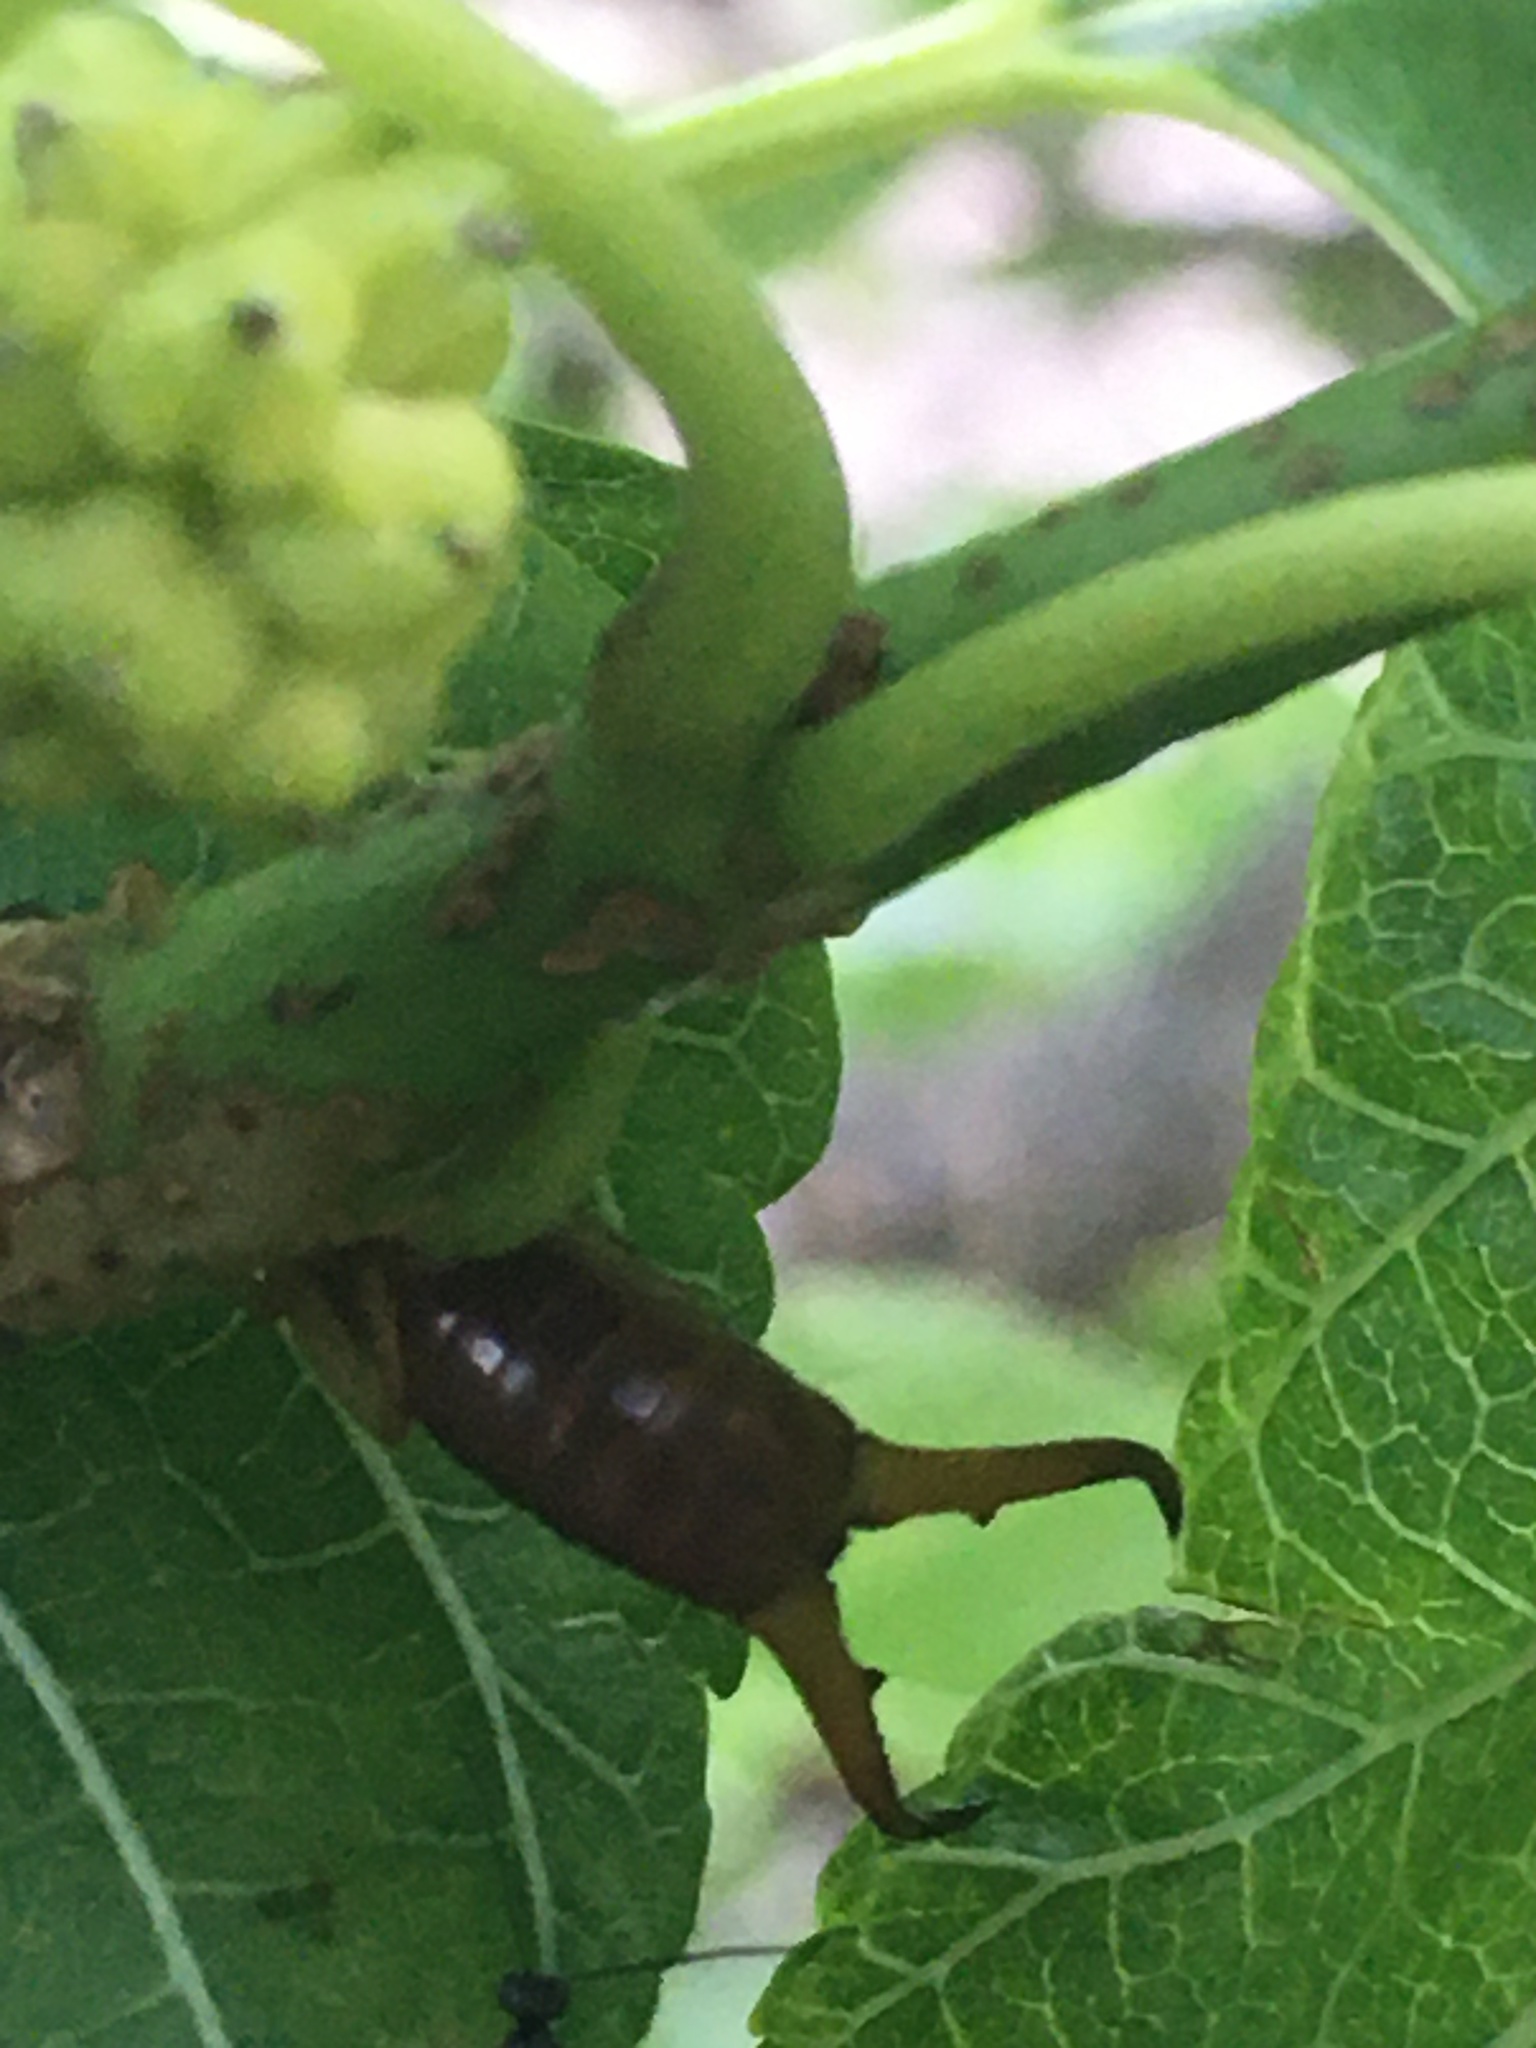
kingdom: Animalia
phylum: Arthropoda
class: Insecta
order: Dermaptera
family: Forficulidae
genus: Forficula
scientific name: Forficula
